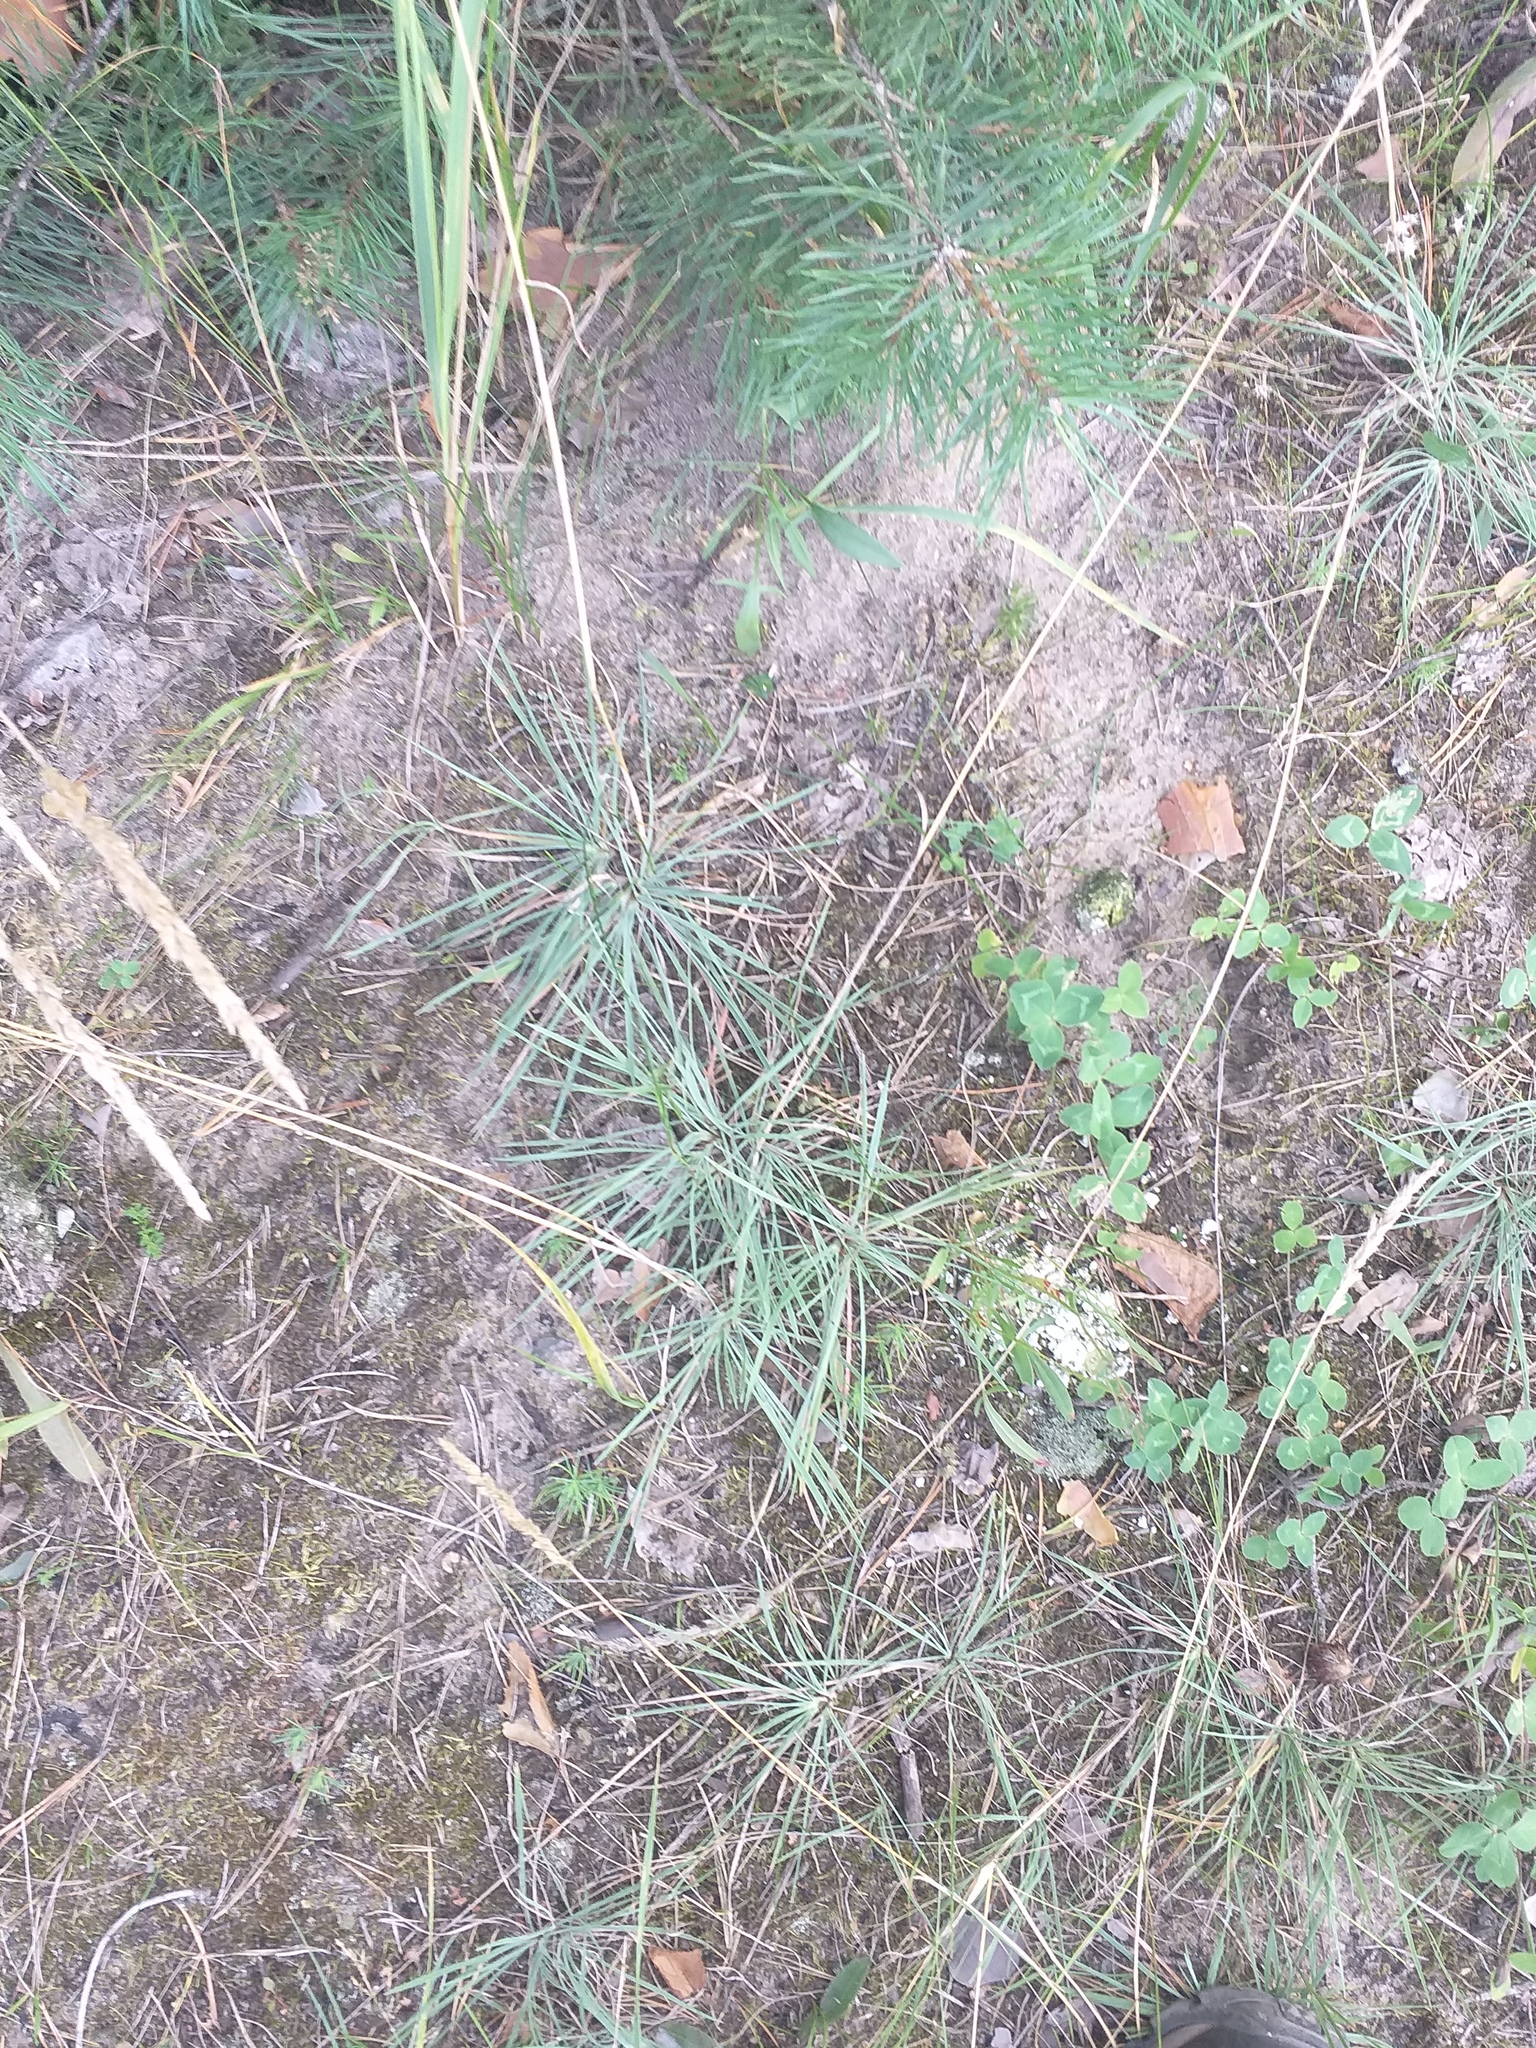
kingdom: Plantae
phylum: Tracheophyta
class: Liliopsida
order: Poales
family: Poaceae
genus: Koeleria
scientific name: Koeleria glauca
